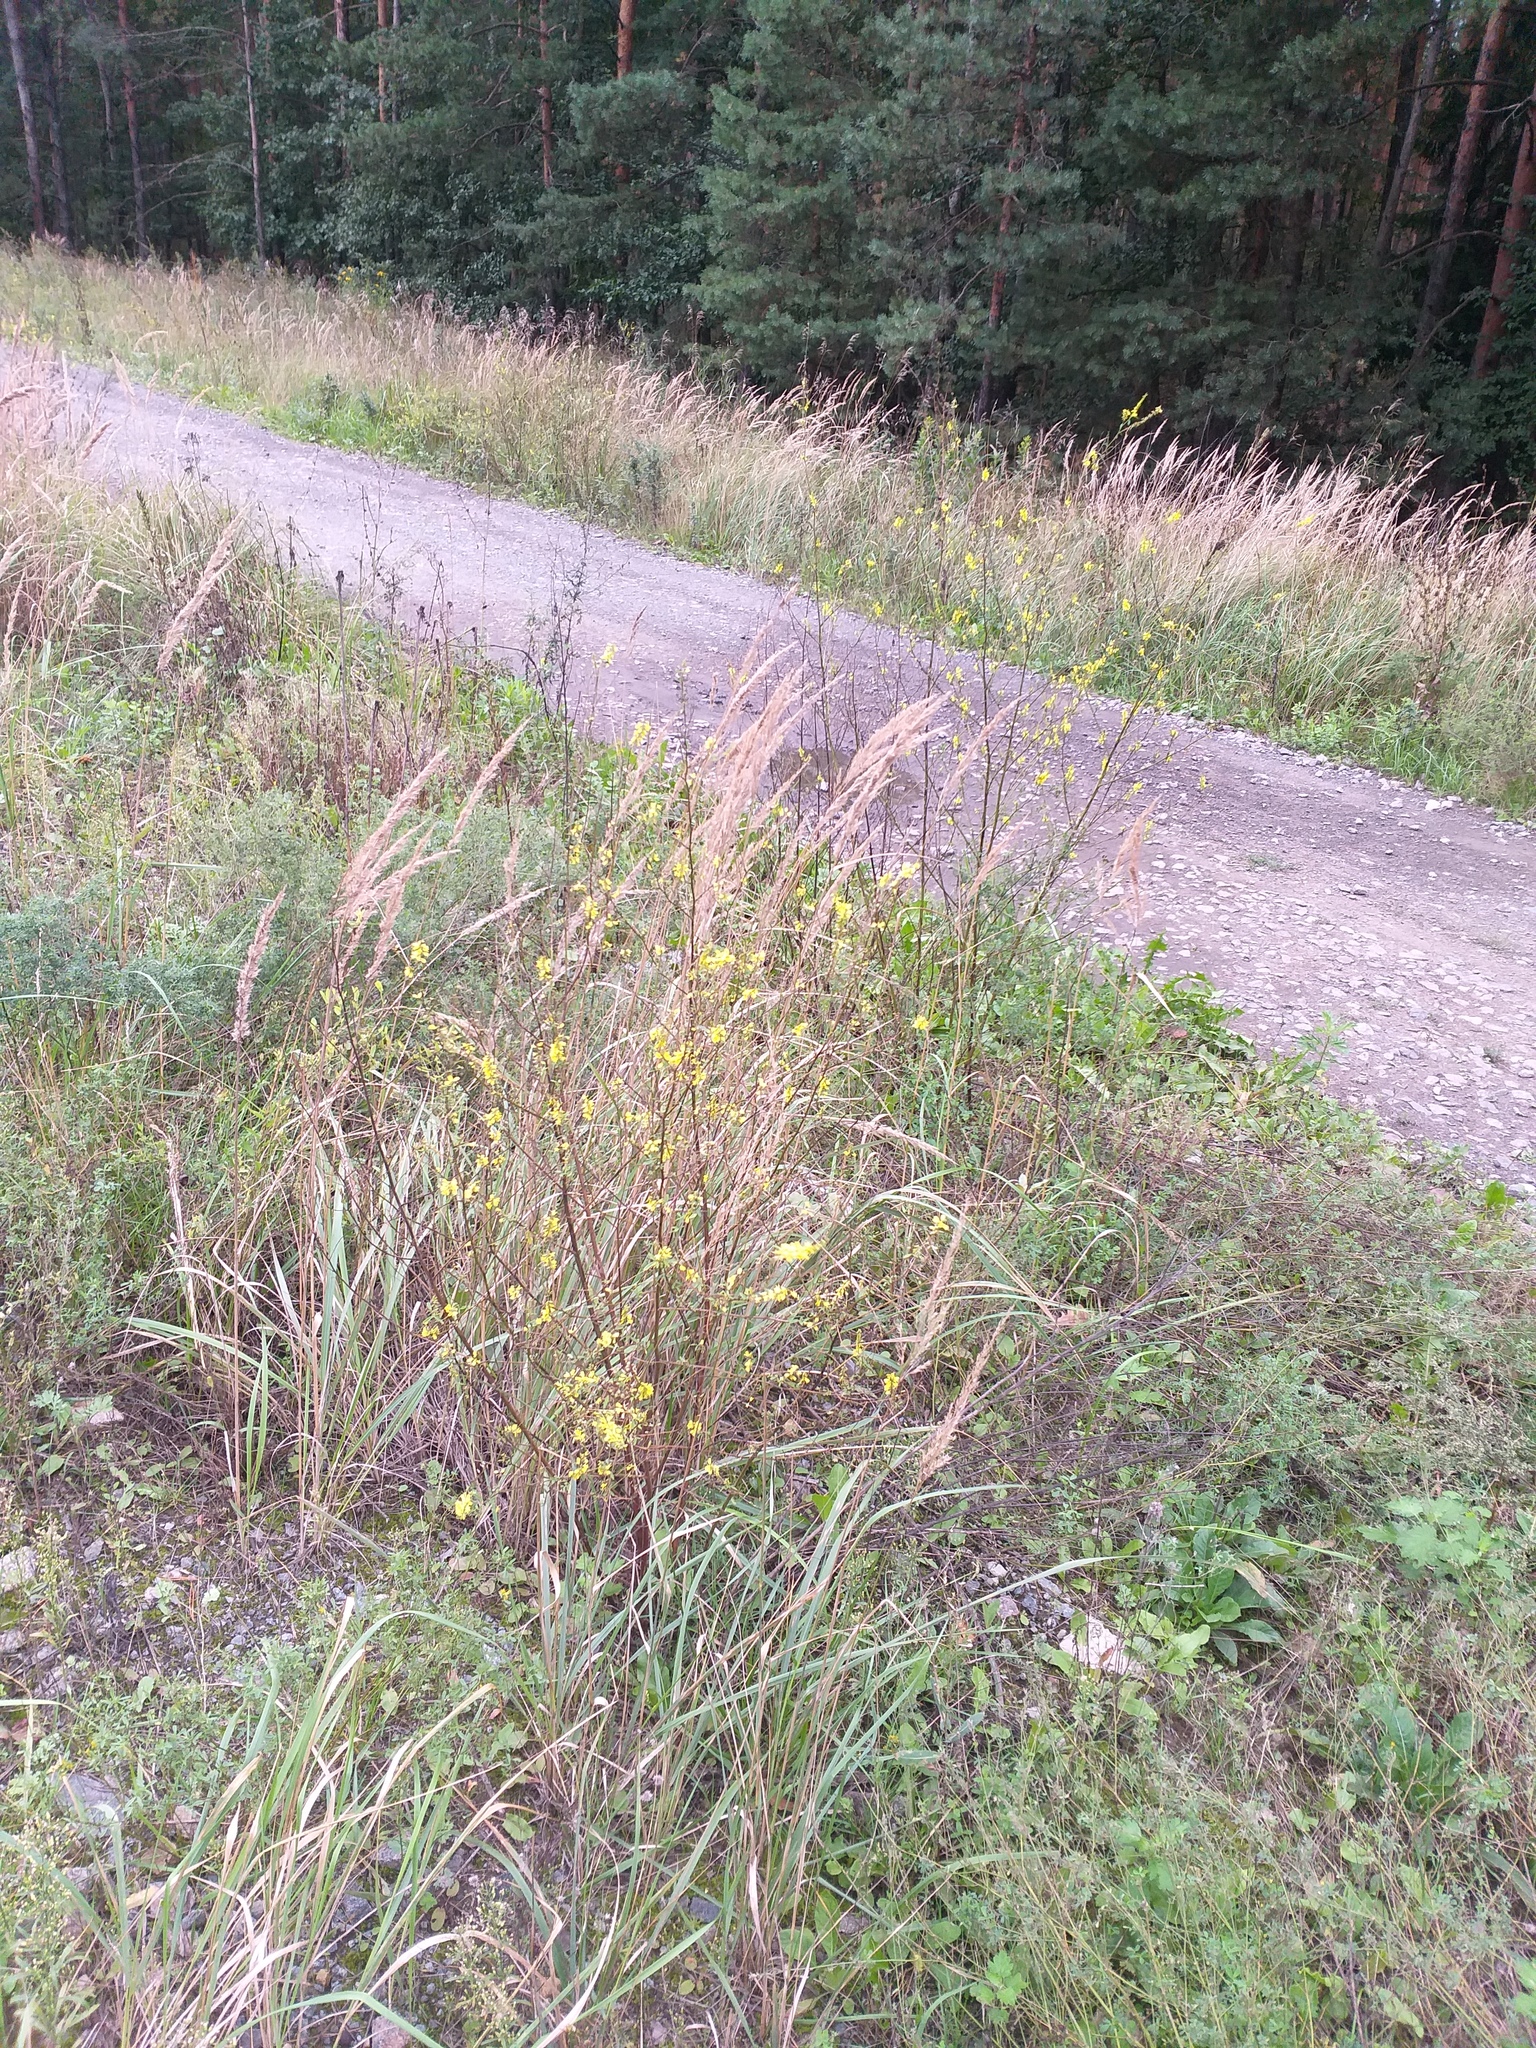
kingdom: Plantae
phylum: Tracheophyta
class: Magnoliopsida
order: Fabales
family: Fabaceae
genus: Melilotus
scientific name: Melilotus officinalis
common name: Sweetclover
